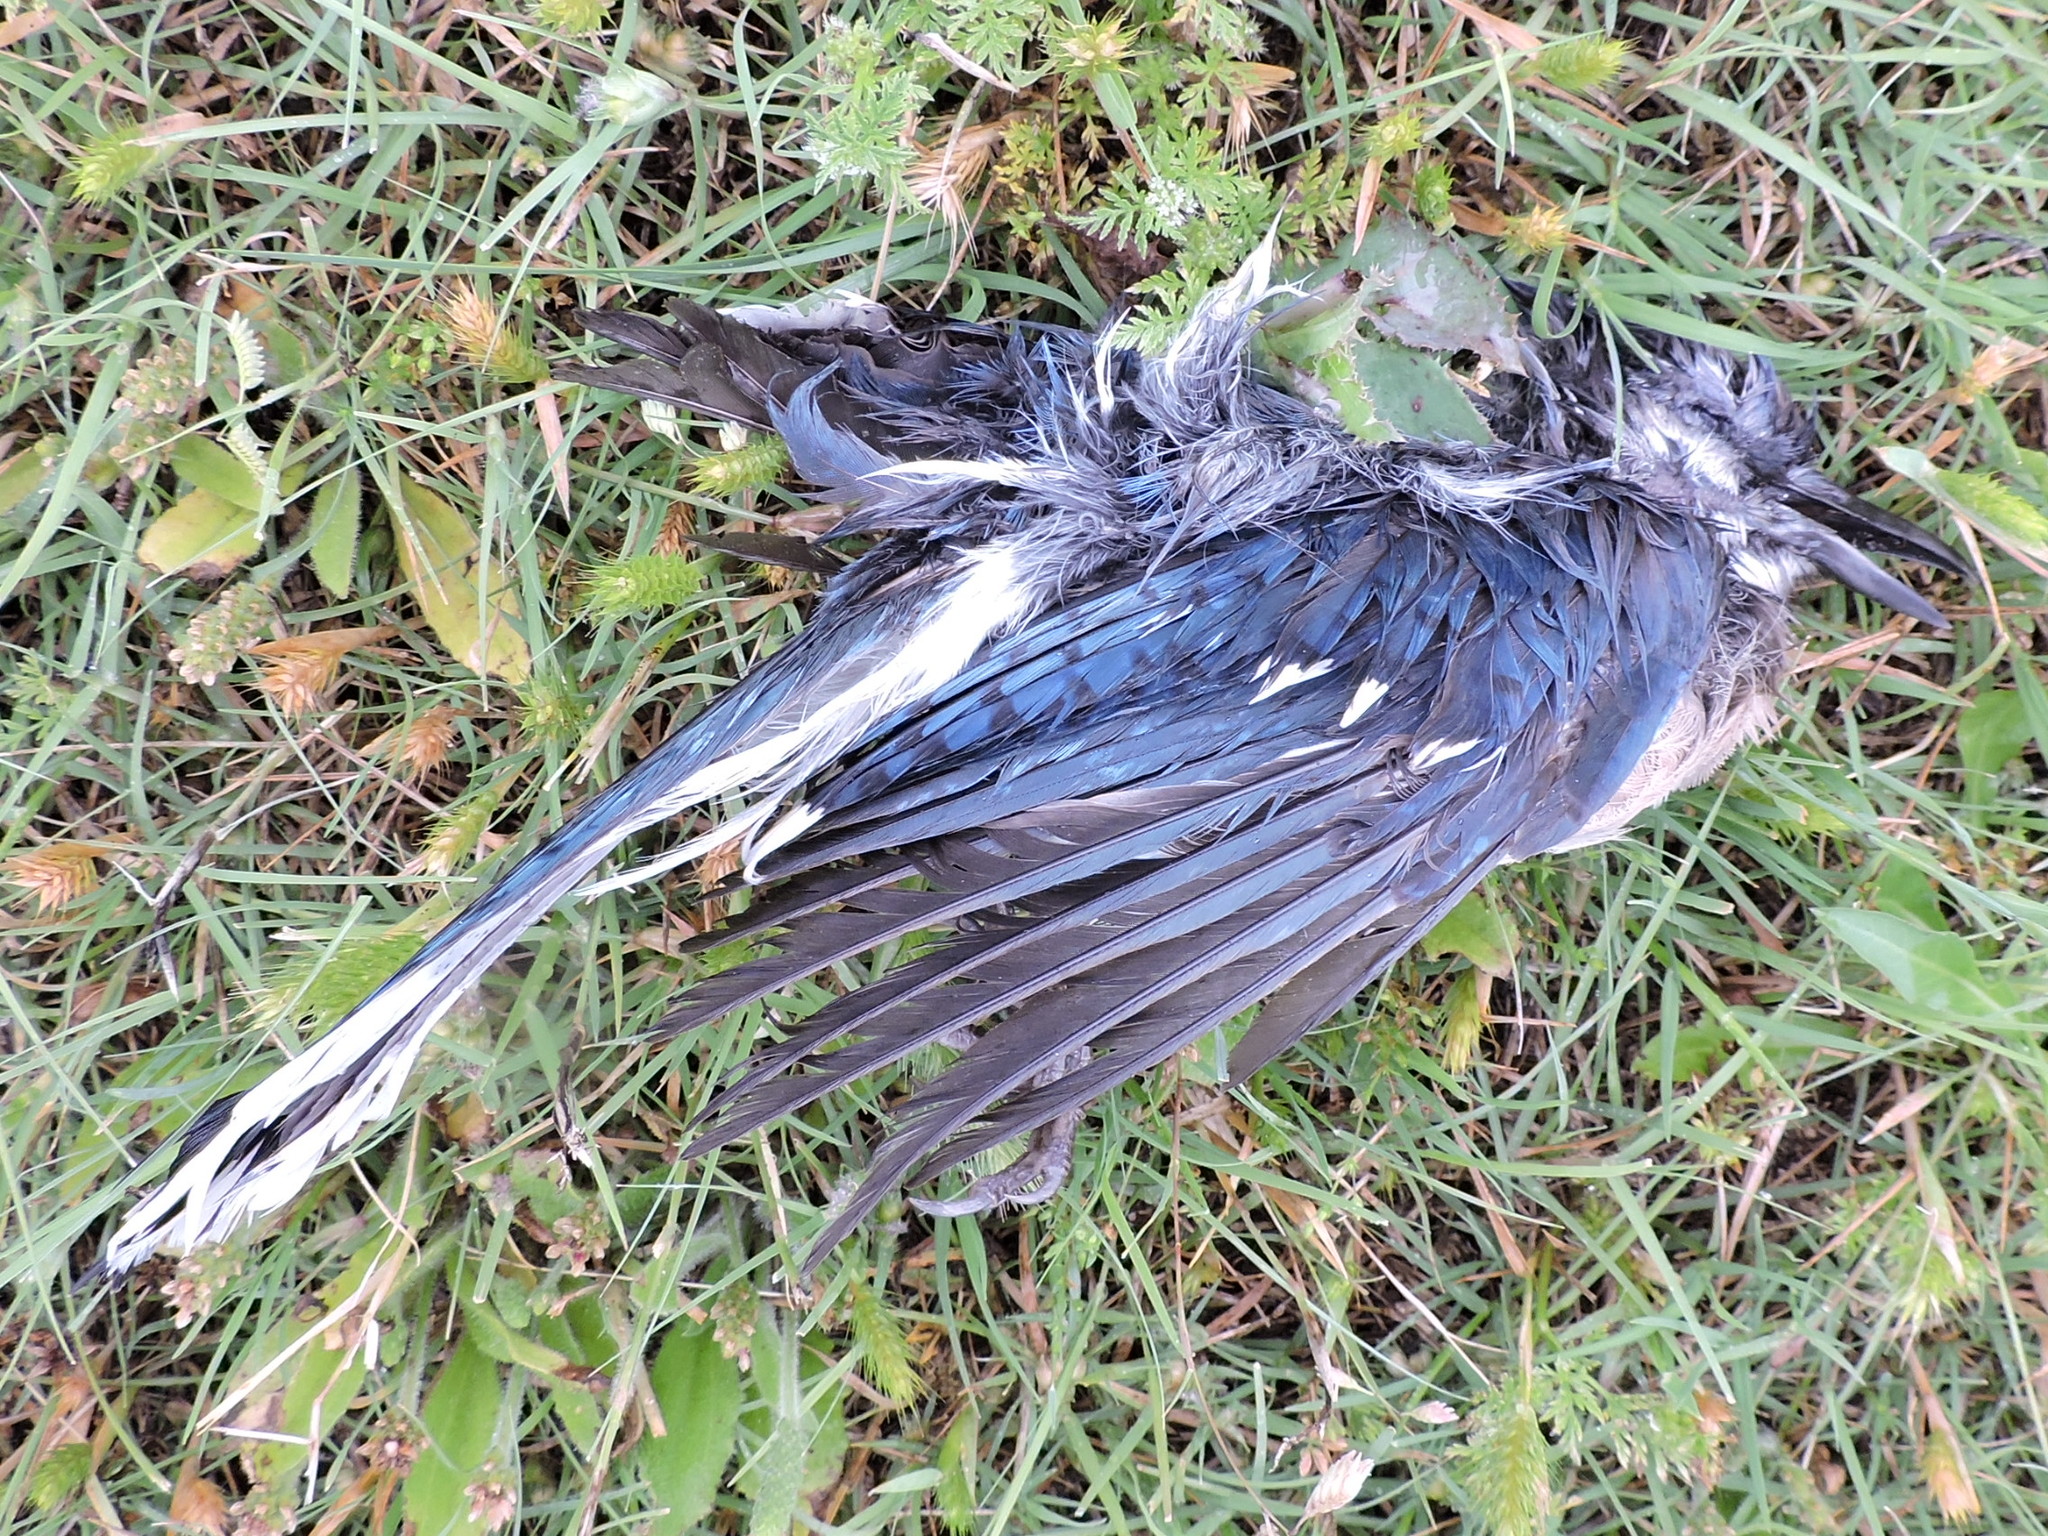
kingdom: Animalia
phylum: Chordata
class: Aves
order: Passeriformes
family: Corvidae
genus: Cyanocitta
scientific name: Cyanocitta cristata
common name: Blue jay
